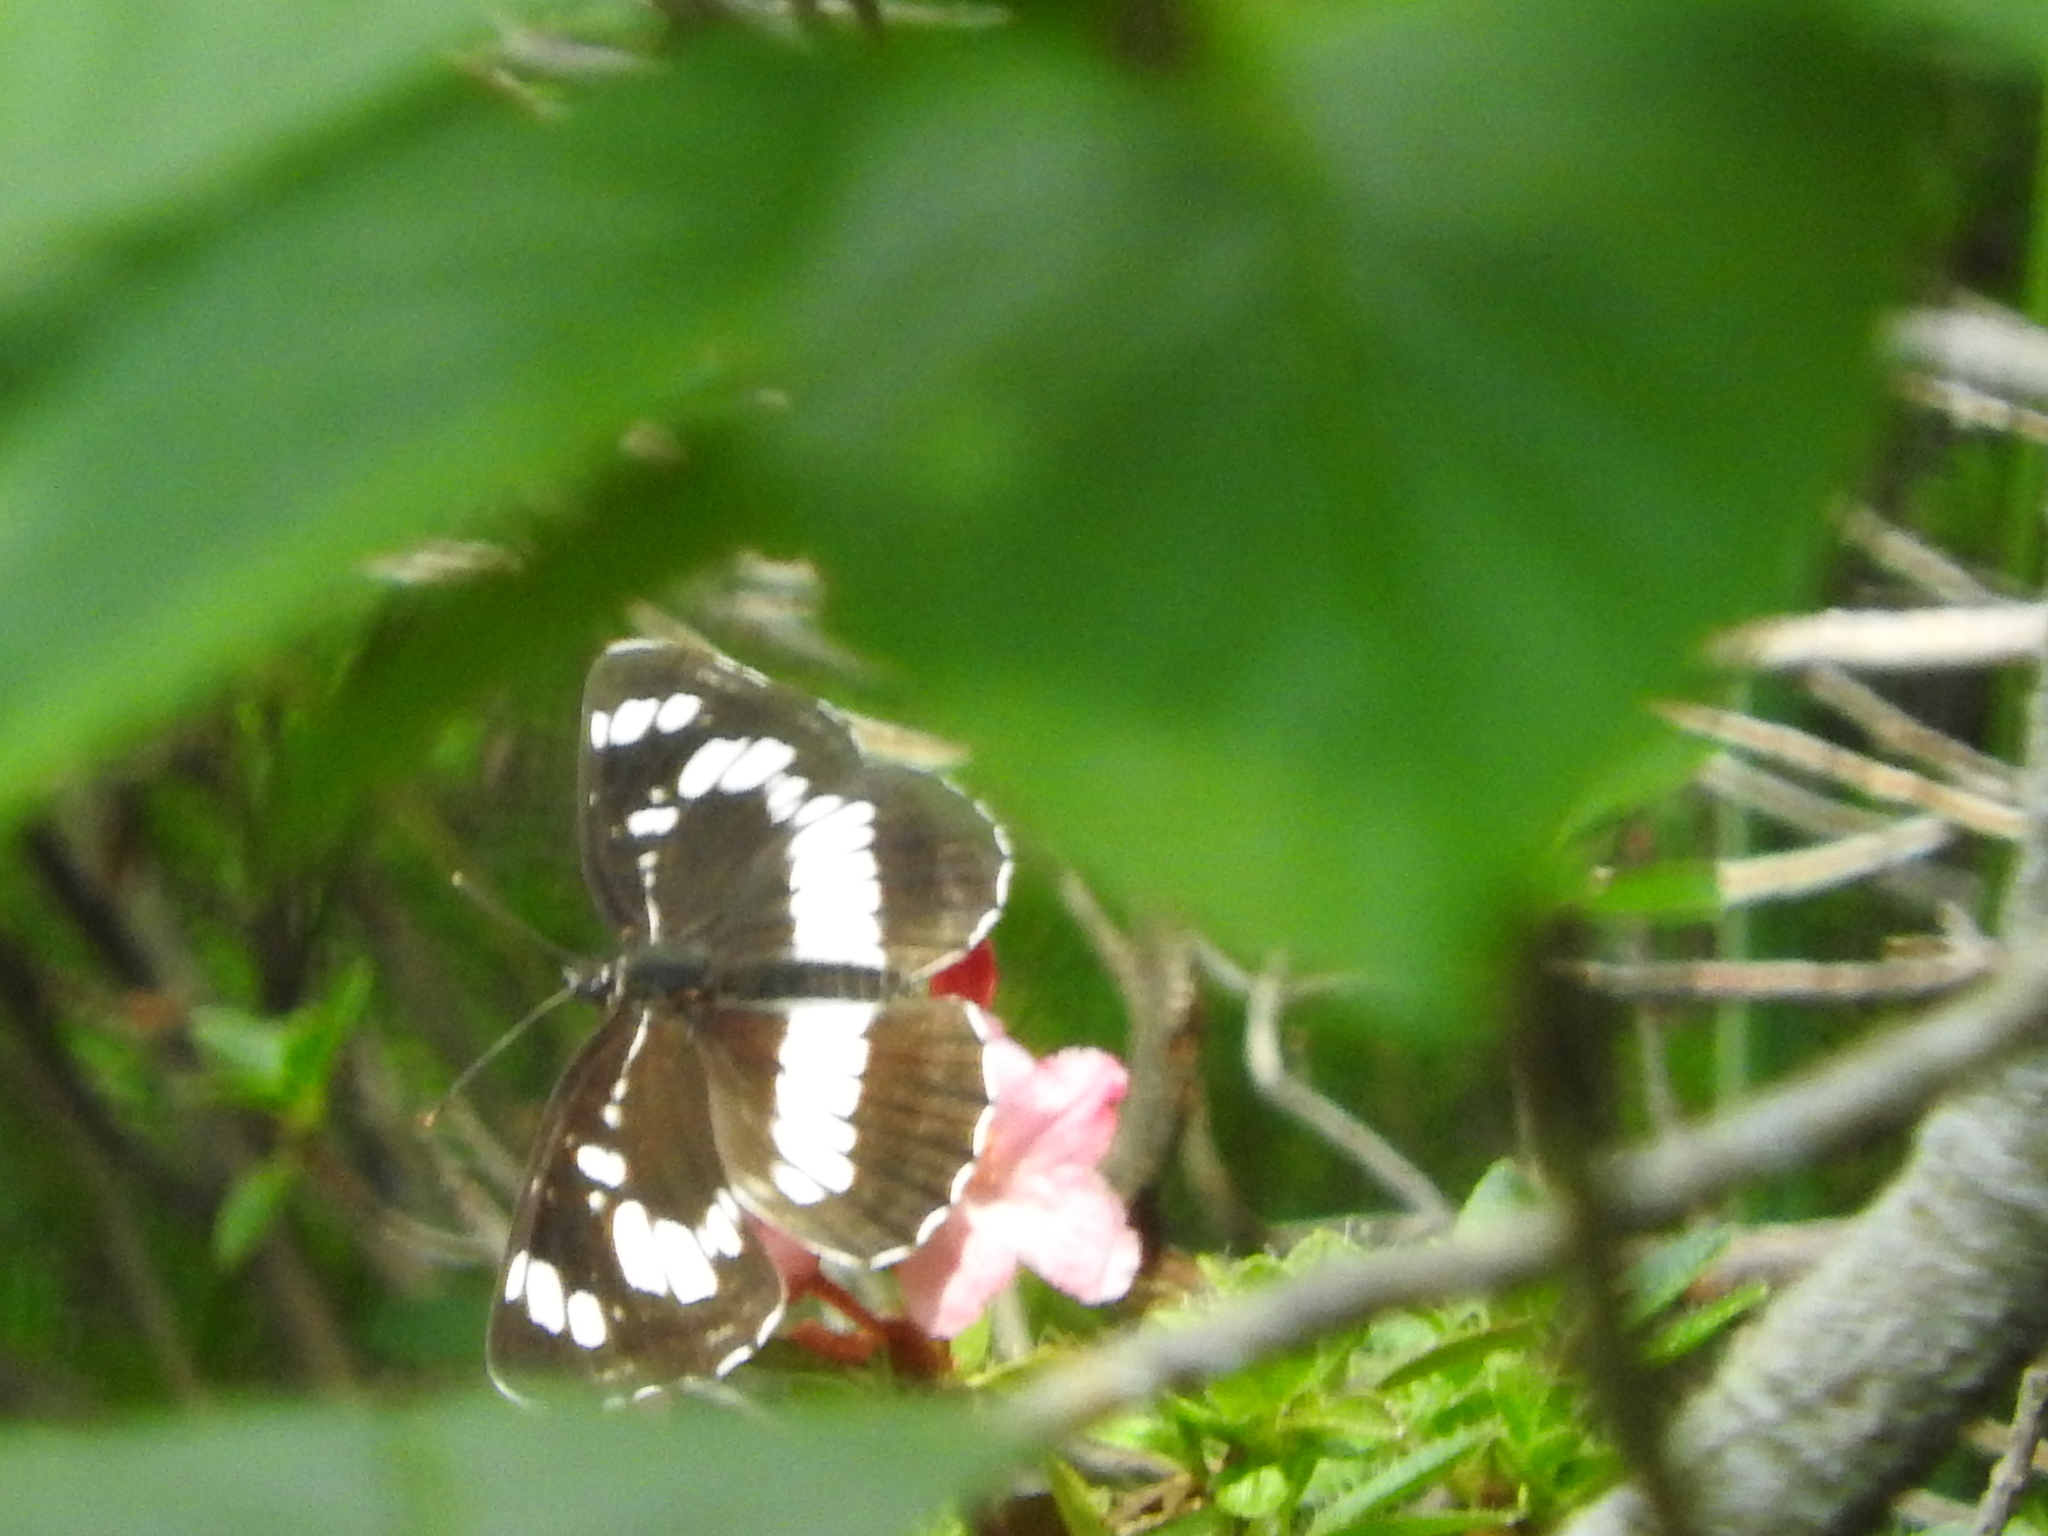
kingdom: Animalia
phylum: Arthropoda
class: Insecta
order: Lepidoptera
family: Nymphalidae
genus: Neptis
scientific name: Neptis rivularis
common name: Hungarian glider
